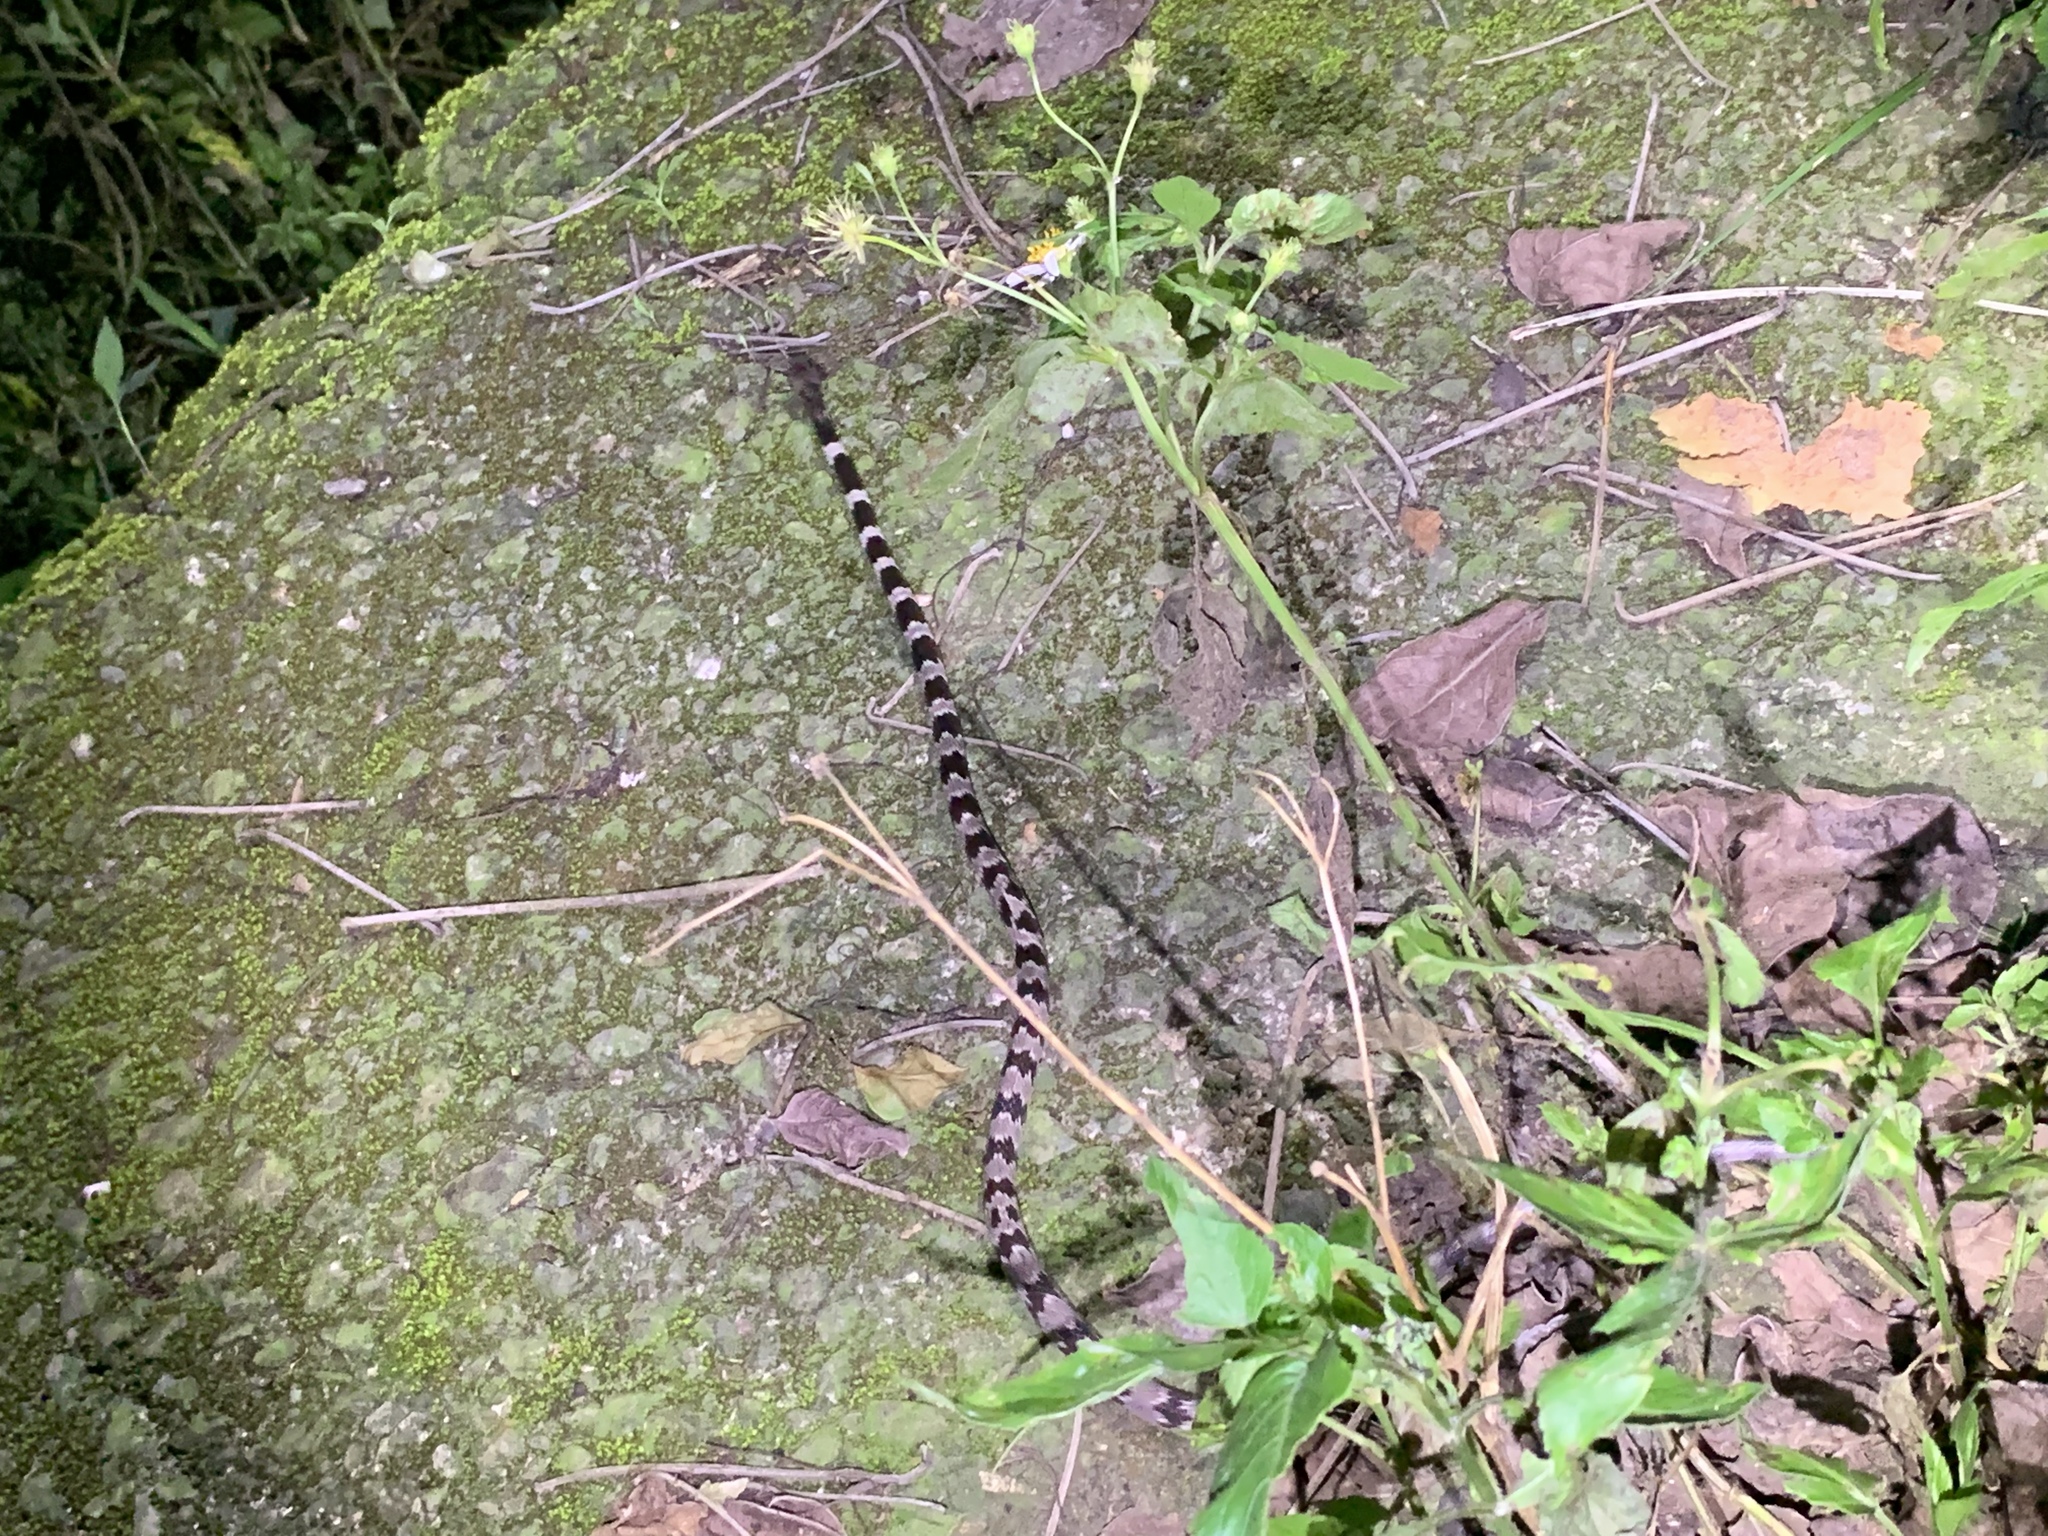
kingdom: Animalia
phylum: Chordata
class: Squamata
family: Colubridae
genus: Lycodon
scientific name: Lycodon ruhstrati
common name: Rushstrat's wolf snake
